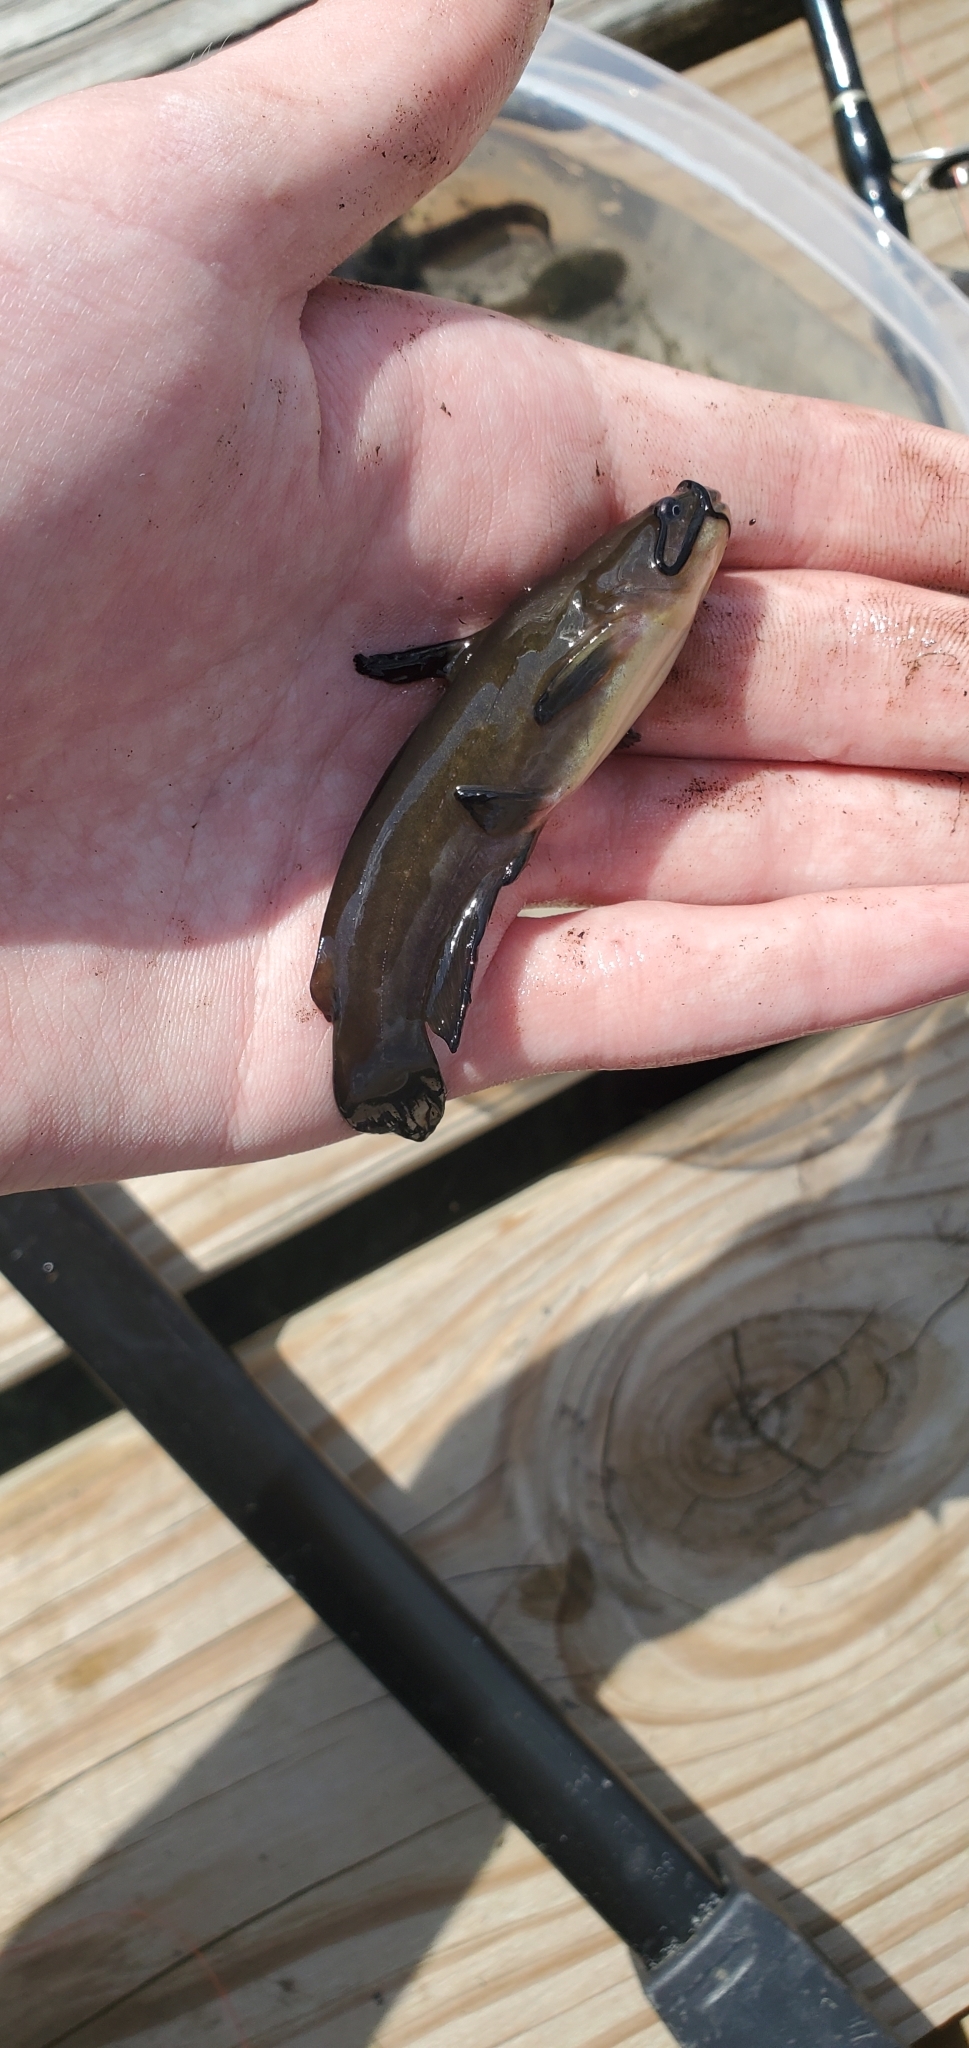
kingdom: Animalia
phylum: Chordata
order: Siluriformes
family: Ictaluridae
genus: Ameiurus
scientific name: Ameiurus natalis
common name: Yellow bullhead
